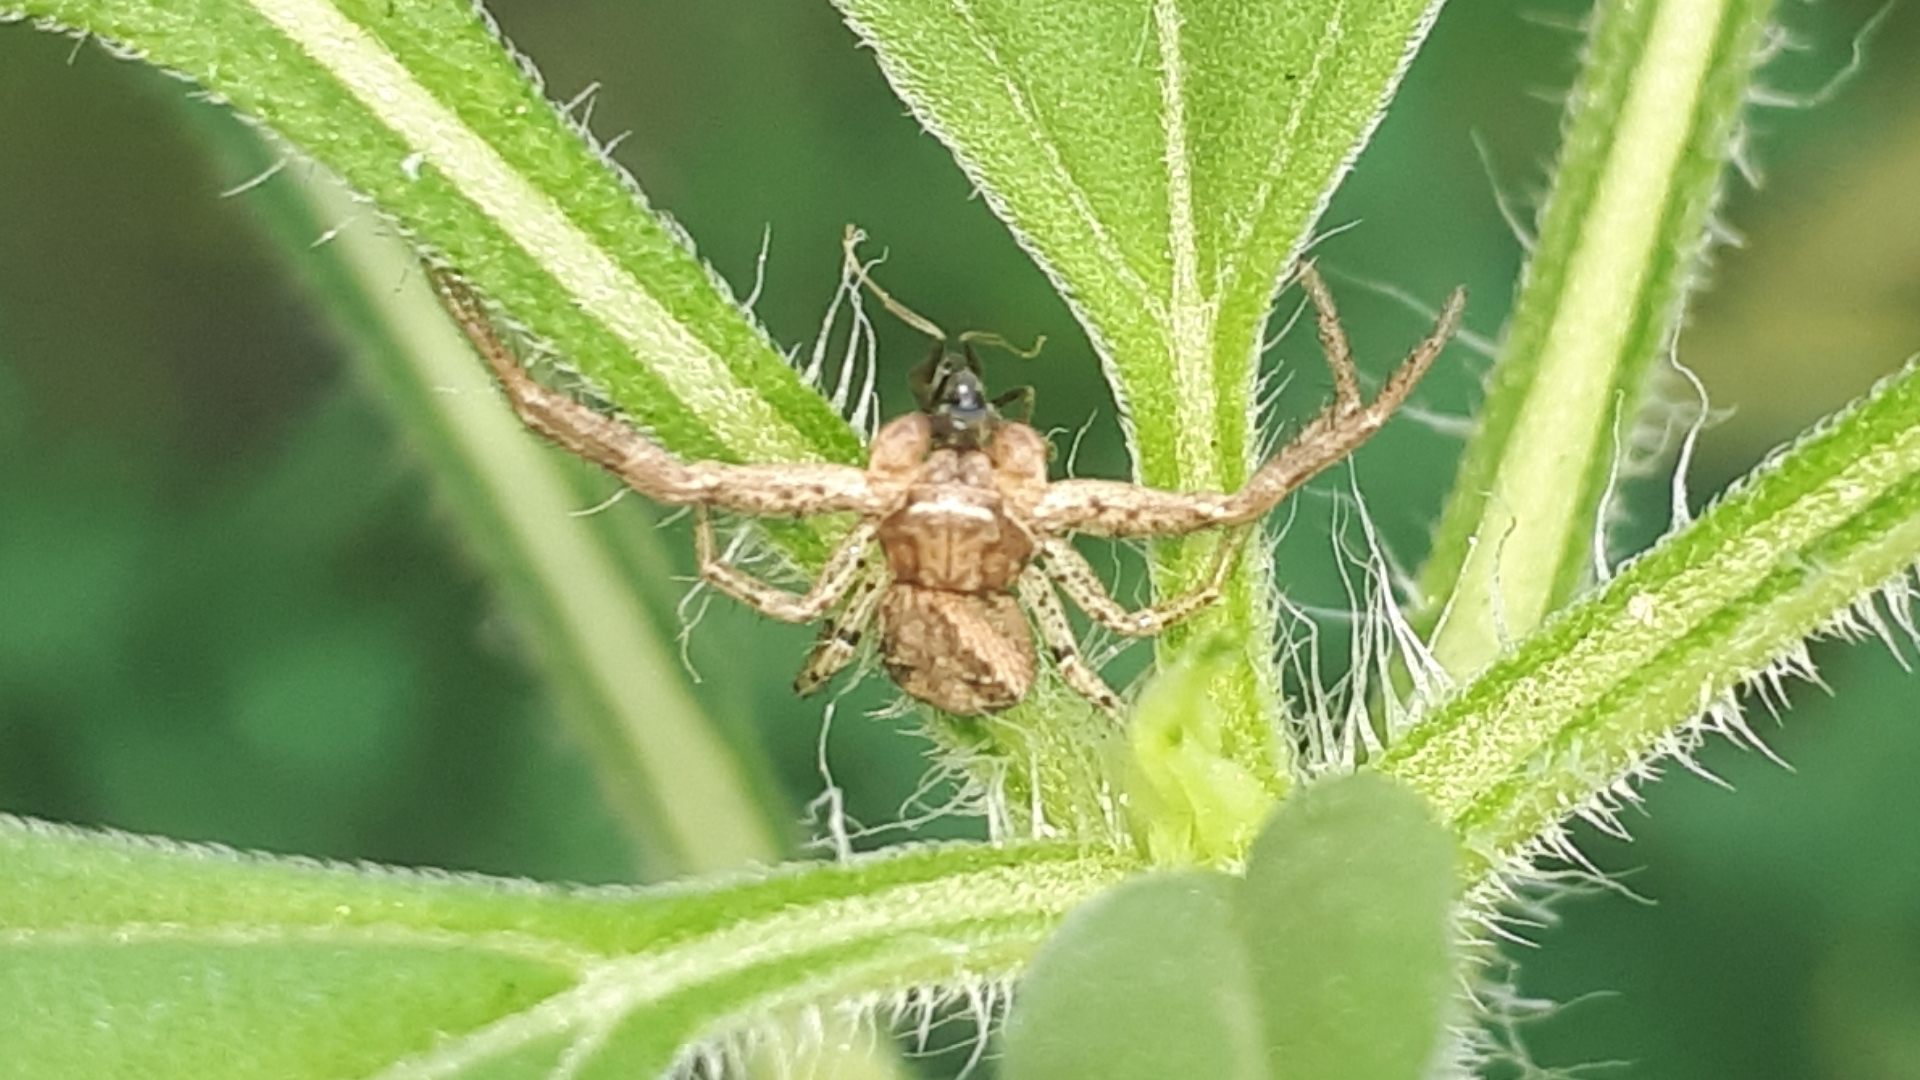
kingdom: Animalia
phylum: Arthropoda
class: Arachnida
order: Araneae
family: Thomisidae
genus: Xysticus
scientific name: Xysticus
